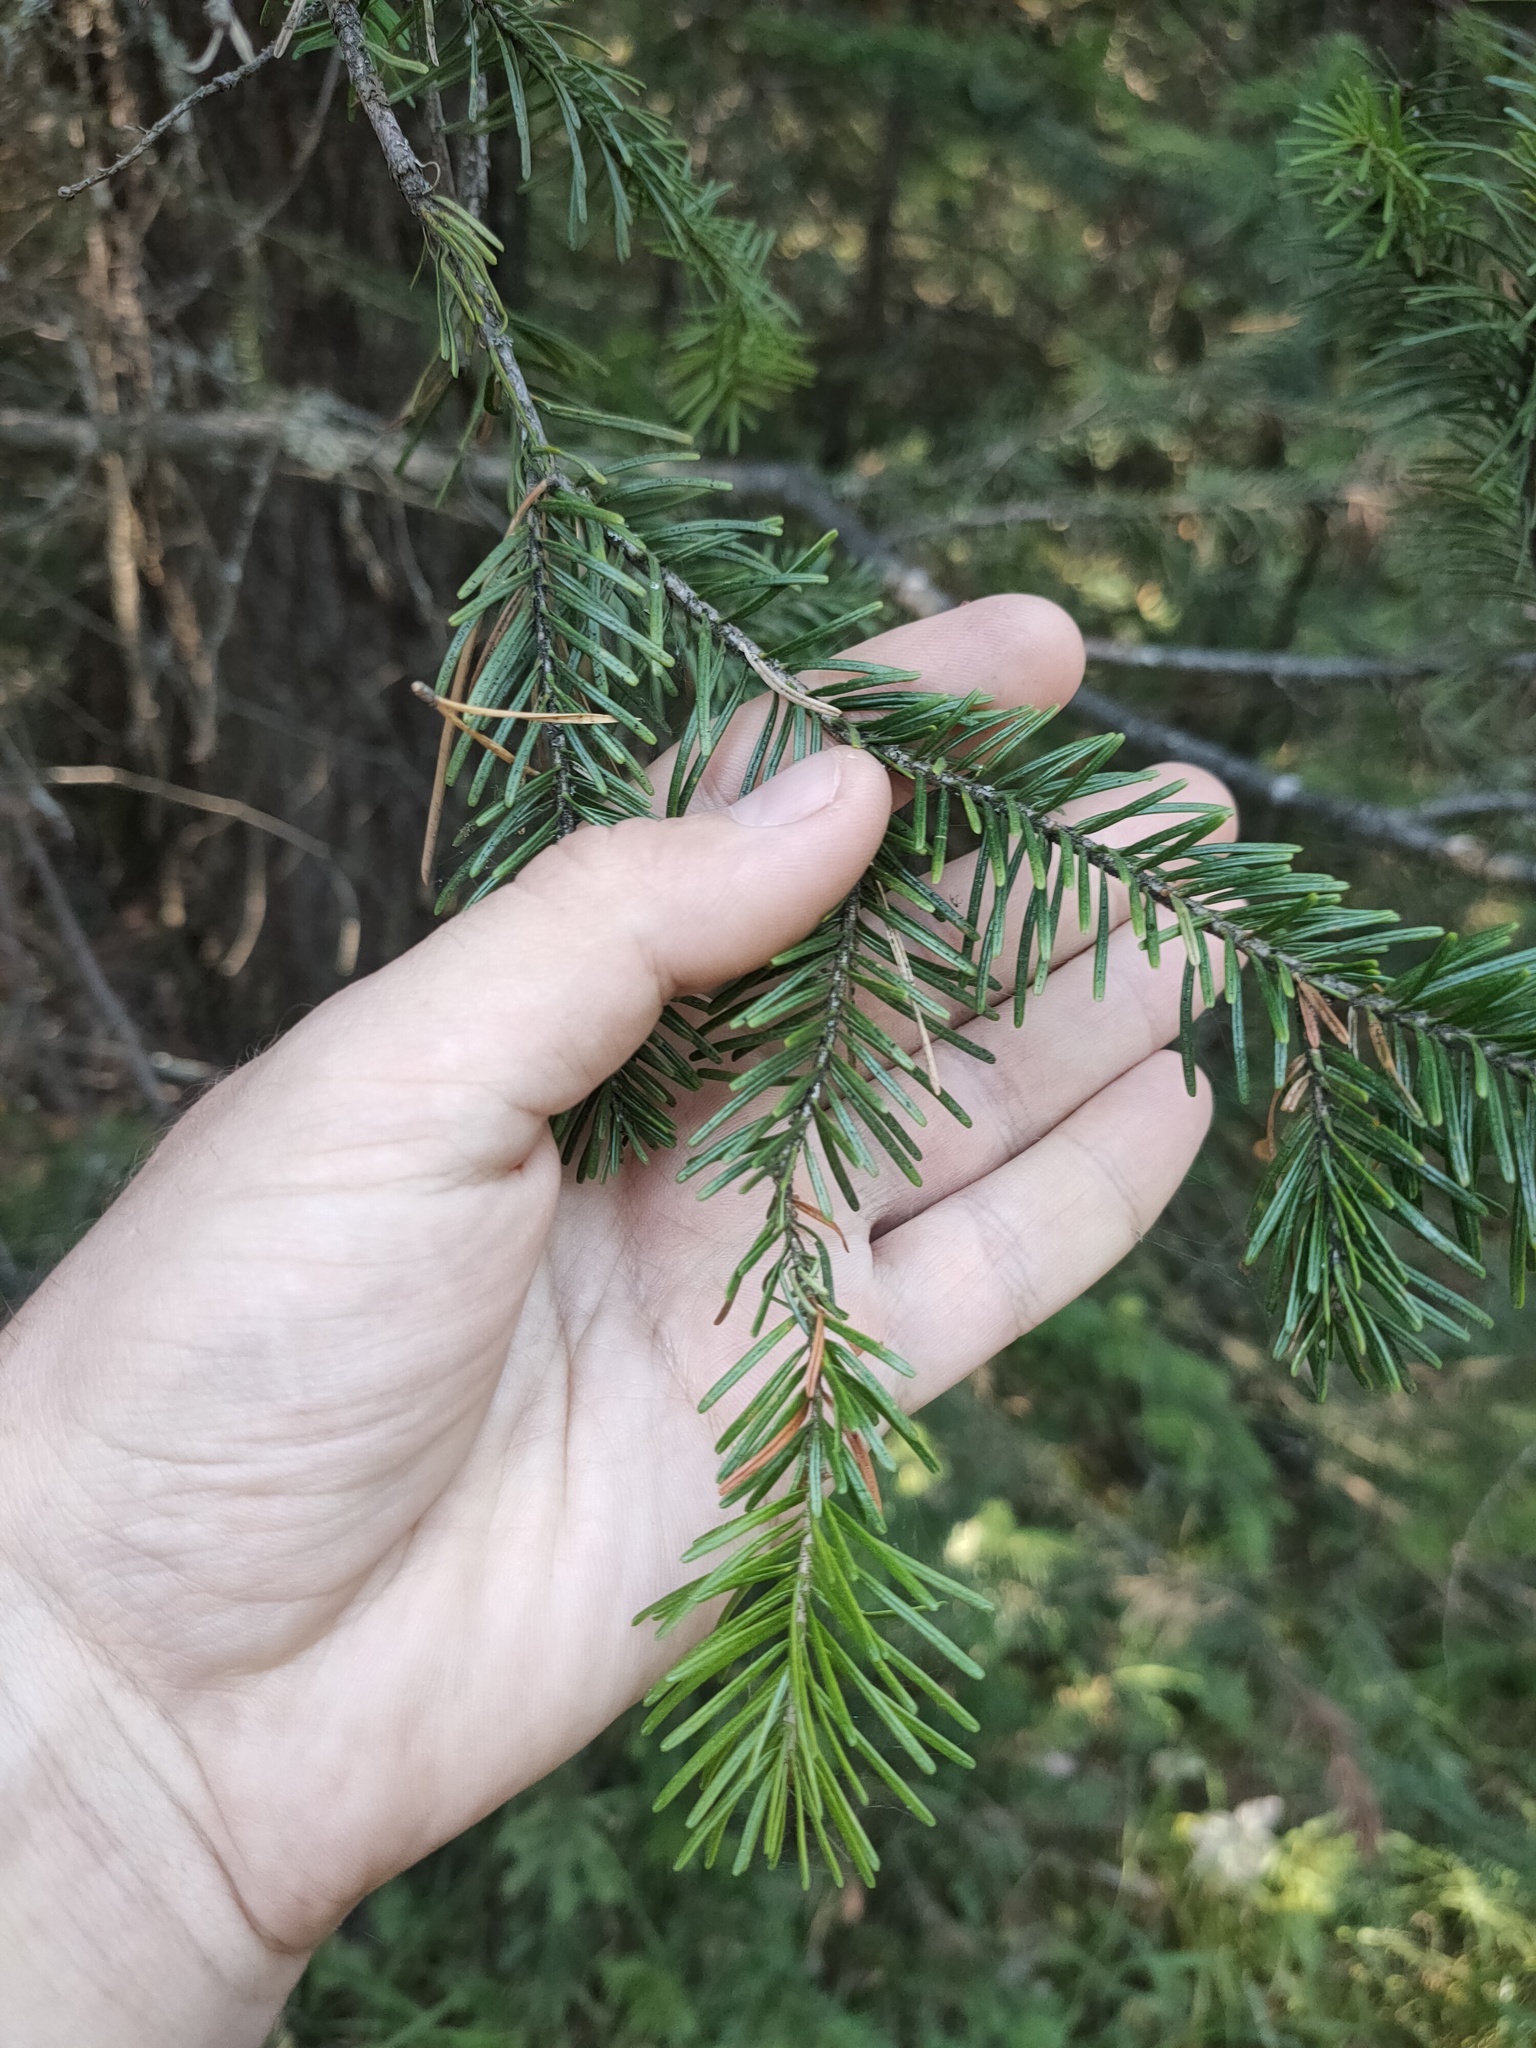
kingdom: Plantae
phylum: Tracheophyta
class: Pinopsida
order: Pinales
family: Pinaceae
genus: Abies
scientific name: Abies sibirica
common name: Siberian fir
